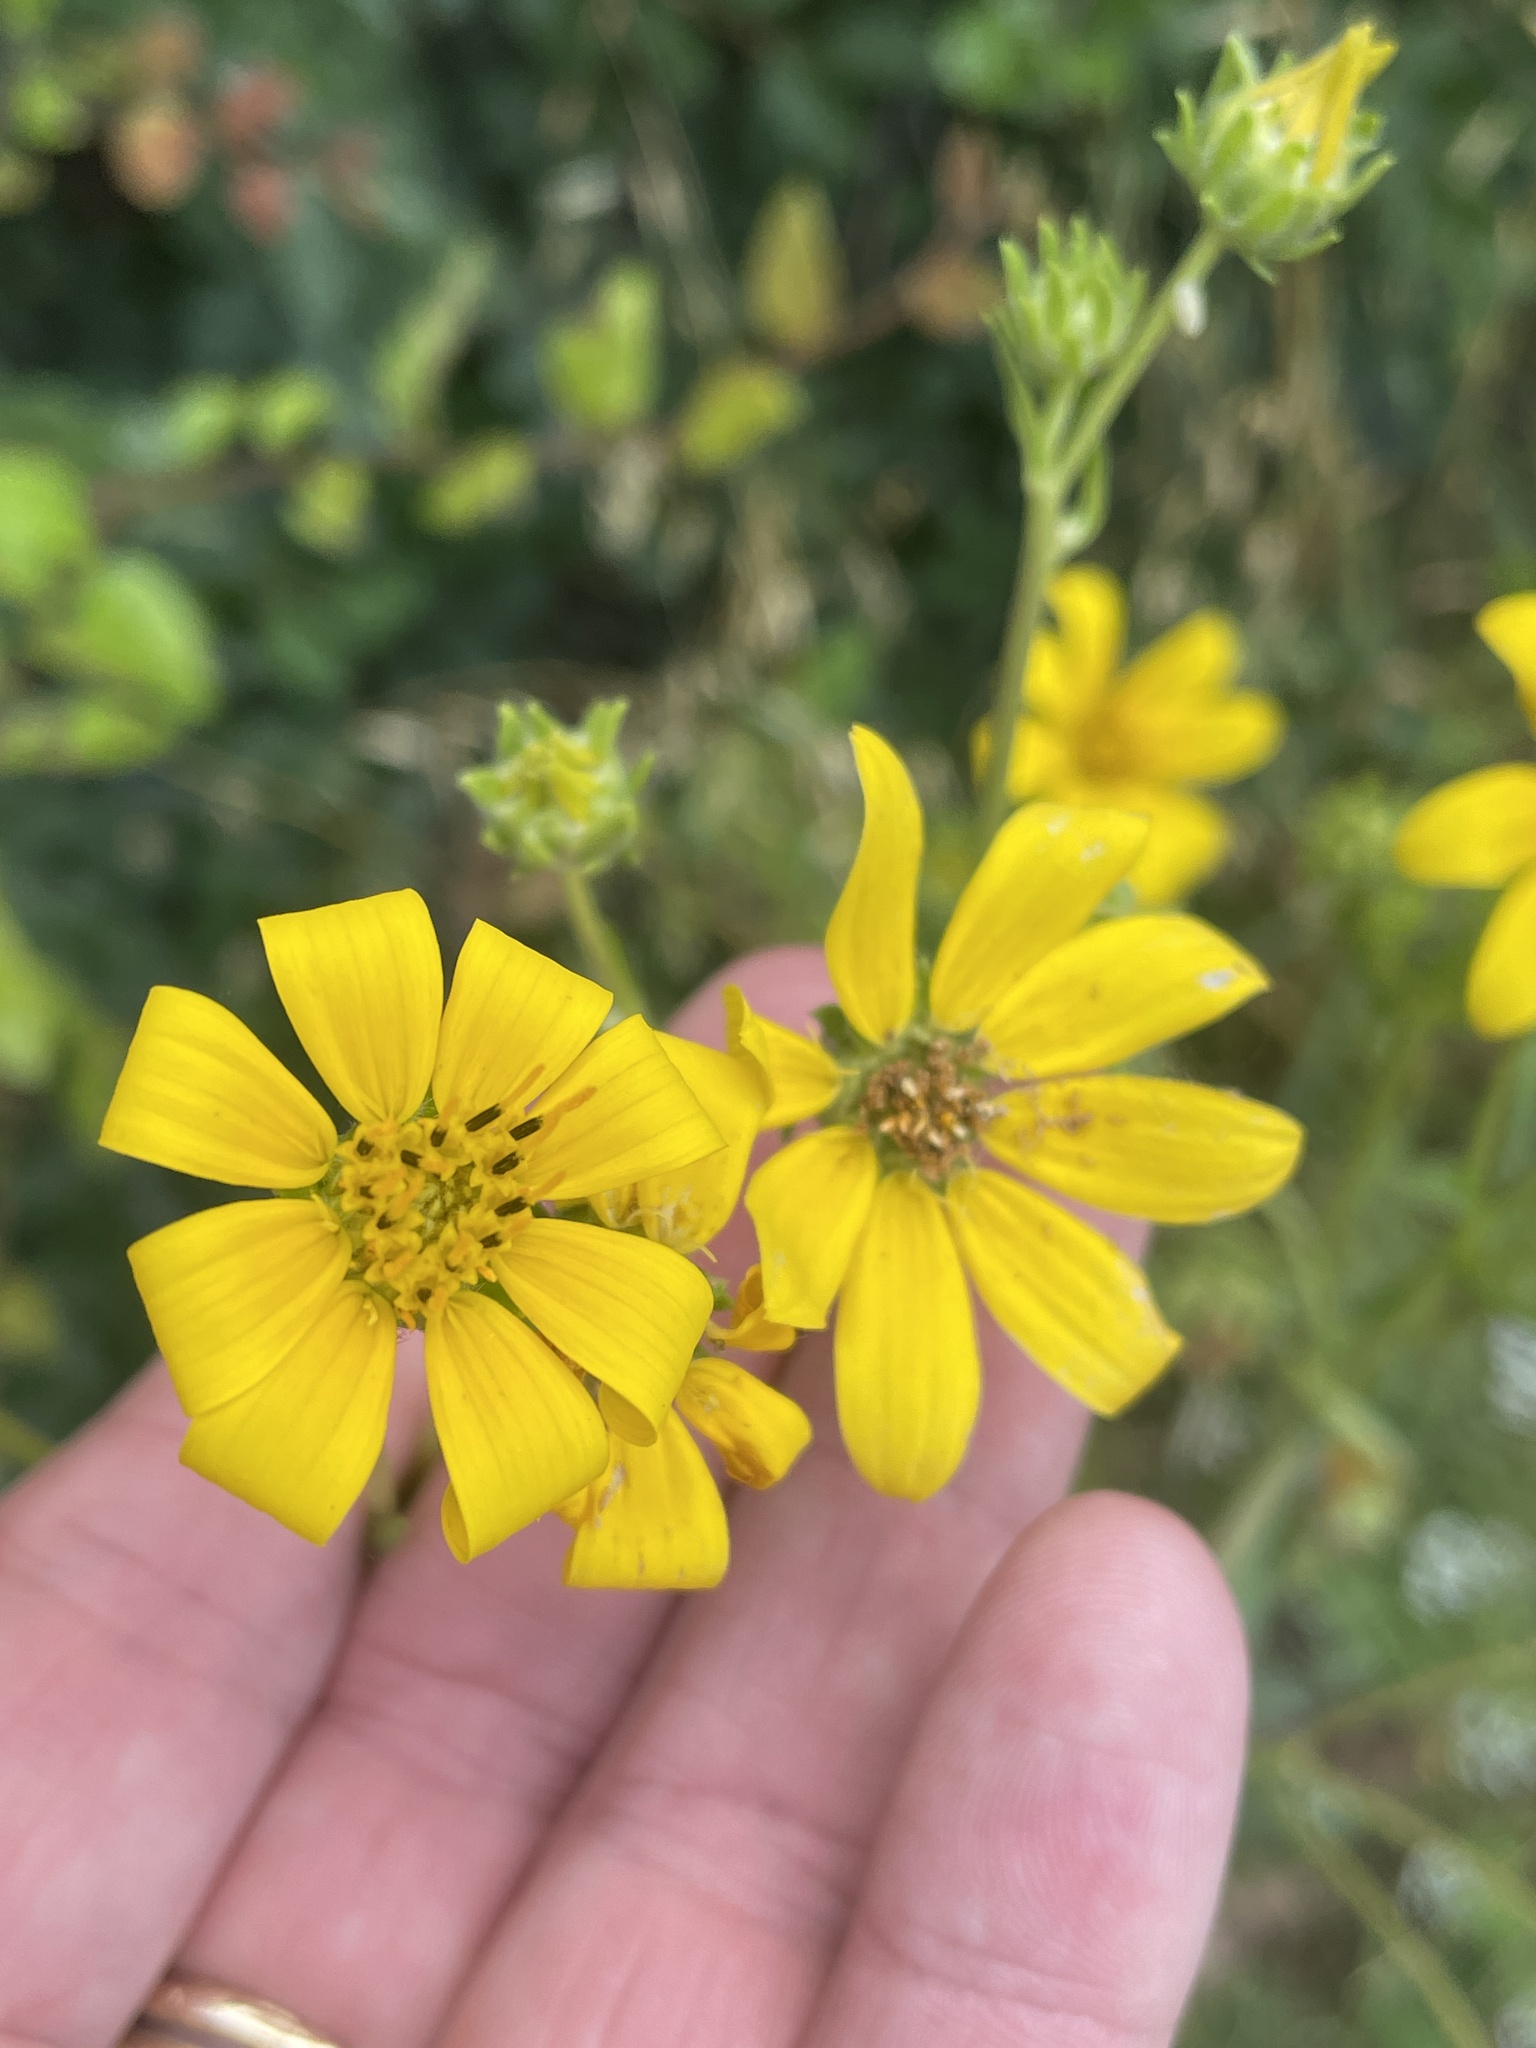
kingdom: Plantae
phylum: Tracheophyta
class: Magnoliopsida
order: Asterales
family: Asteraceae
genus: Engelmannia
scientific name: Engelmannia peristenia
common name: Engelmann's daisy
